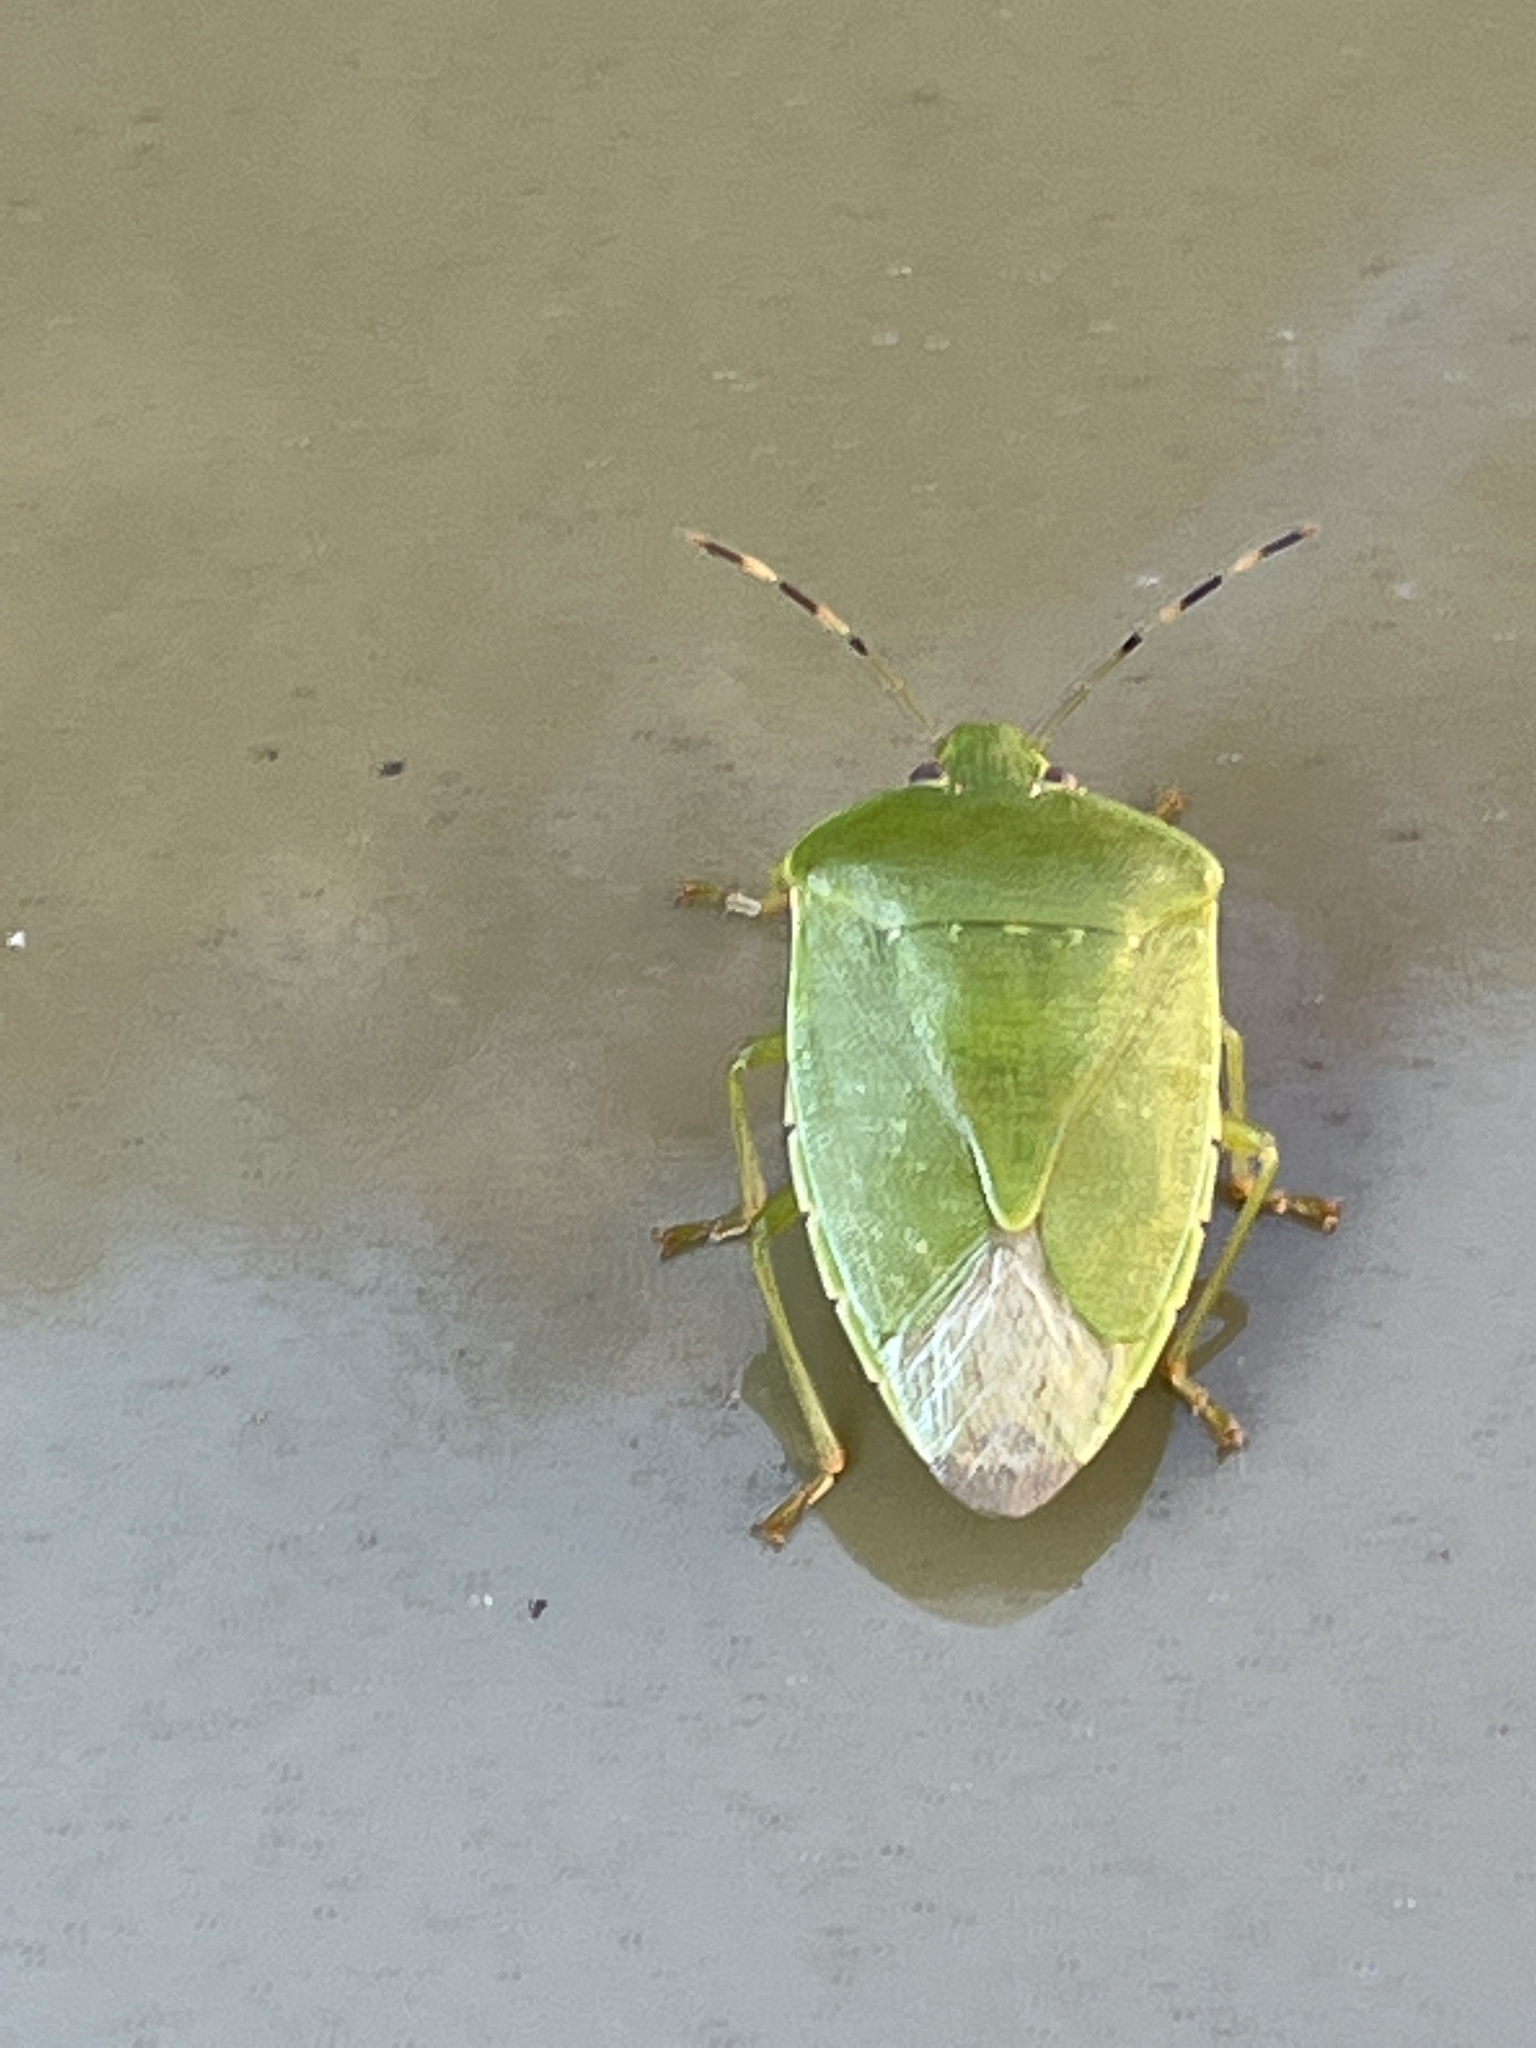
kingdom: Animalia
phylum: Arthropoda
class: Insecta
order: Hemiptera
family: Pentatomidae
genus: Chinavia
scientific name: Chinavia hilaris
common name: Green stink bug
